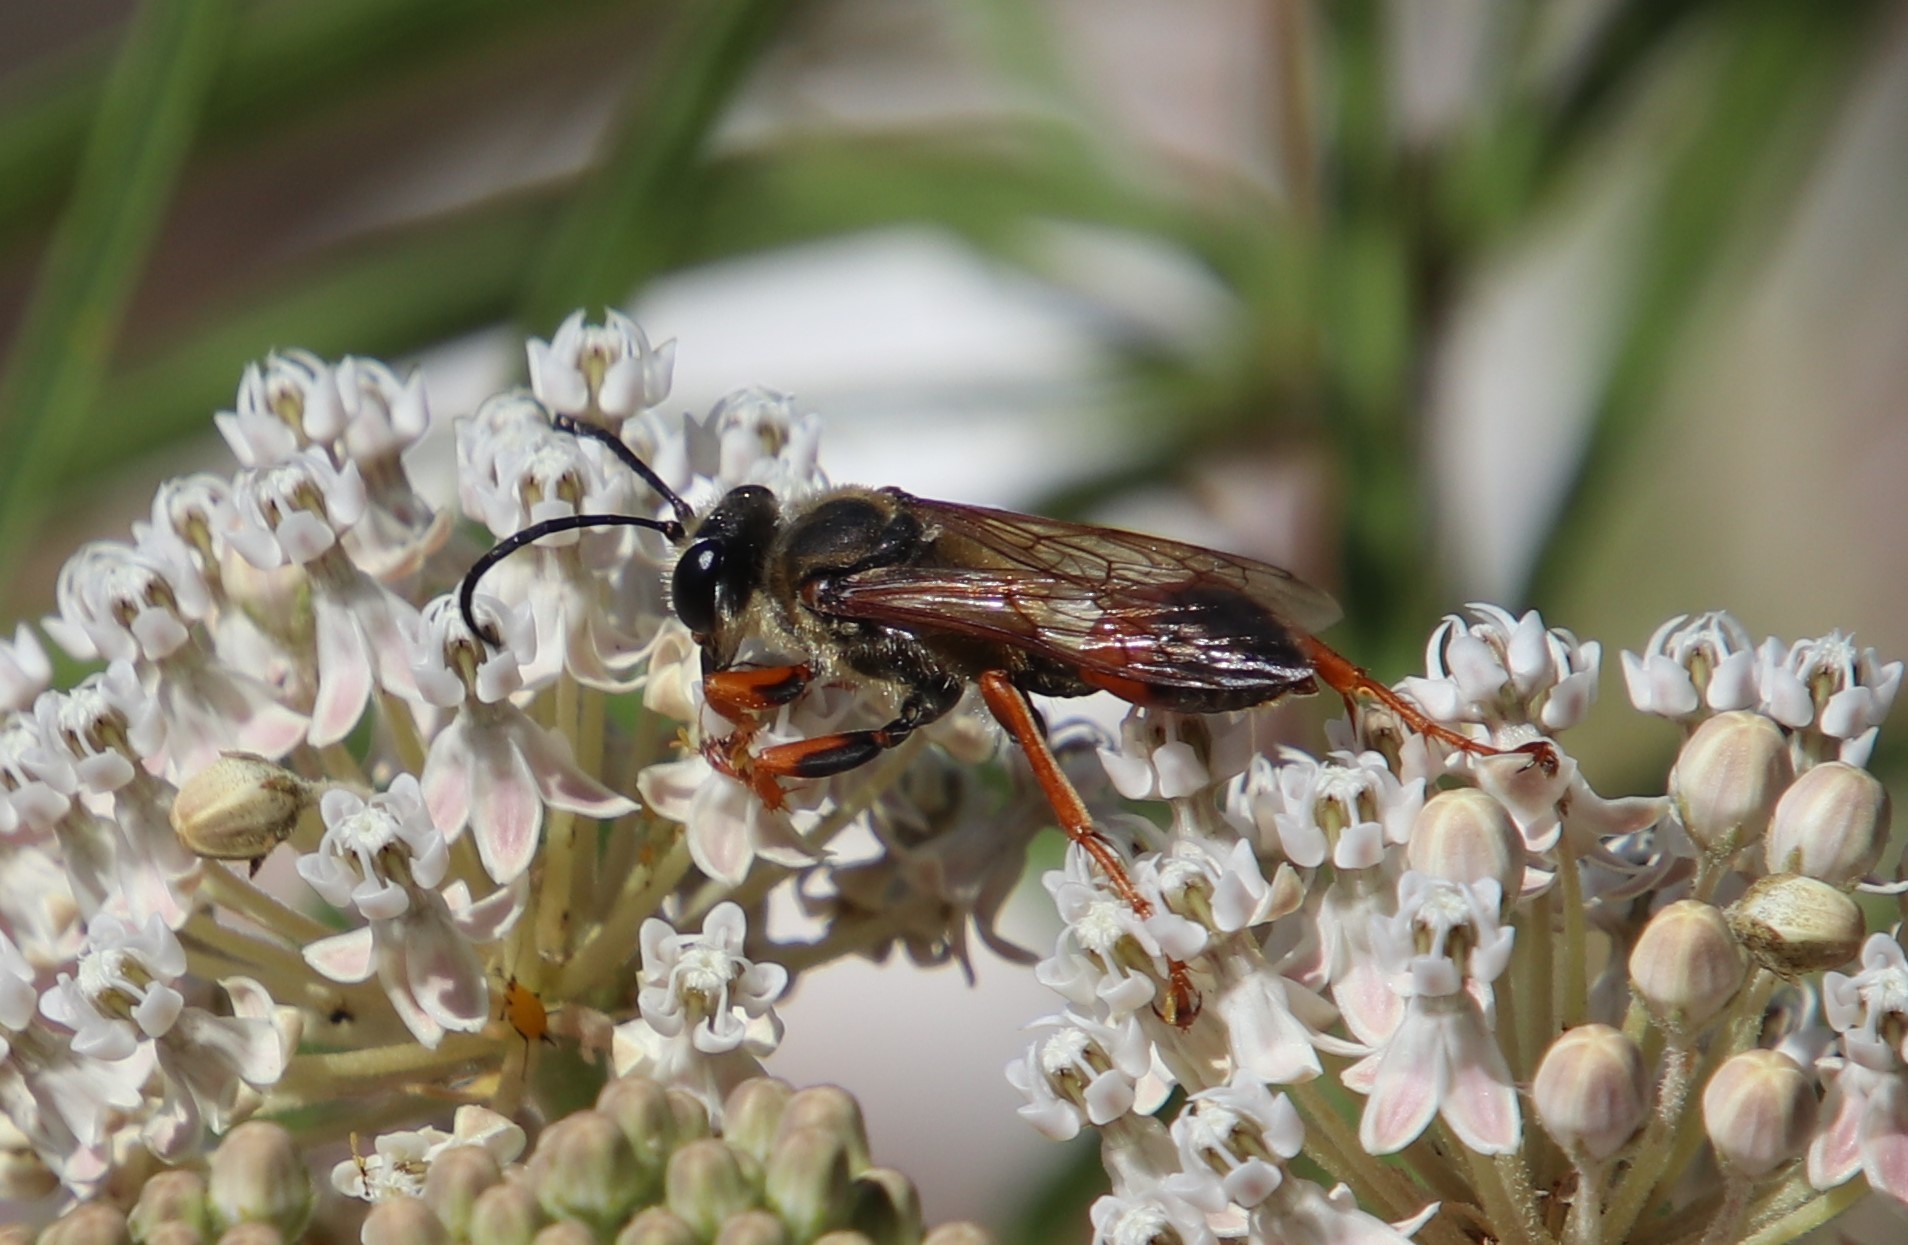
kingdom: Animalia
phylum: Arthropoda
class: Insecta
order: Hymenoptera
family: Sphecidae
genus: Sphex
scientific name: Sphex ichneumoneus
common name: Great golden digger wasp
